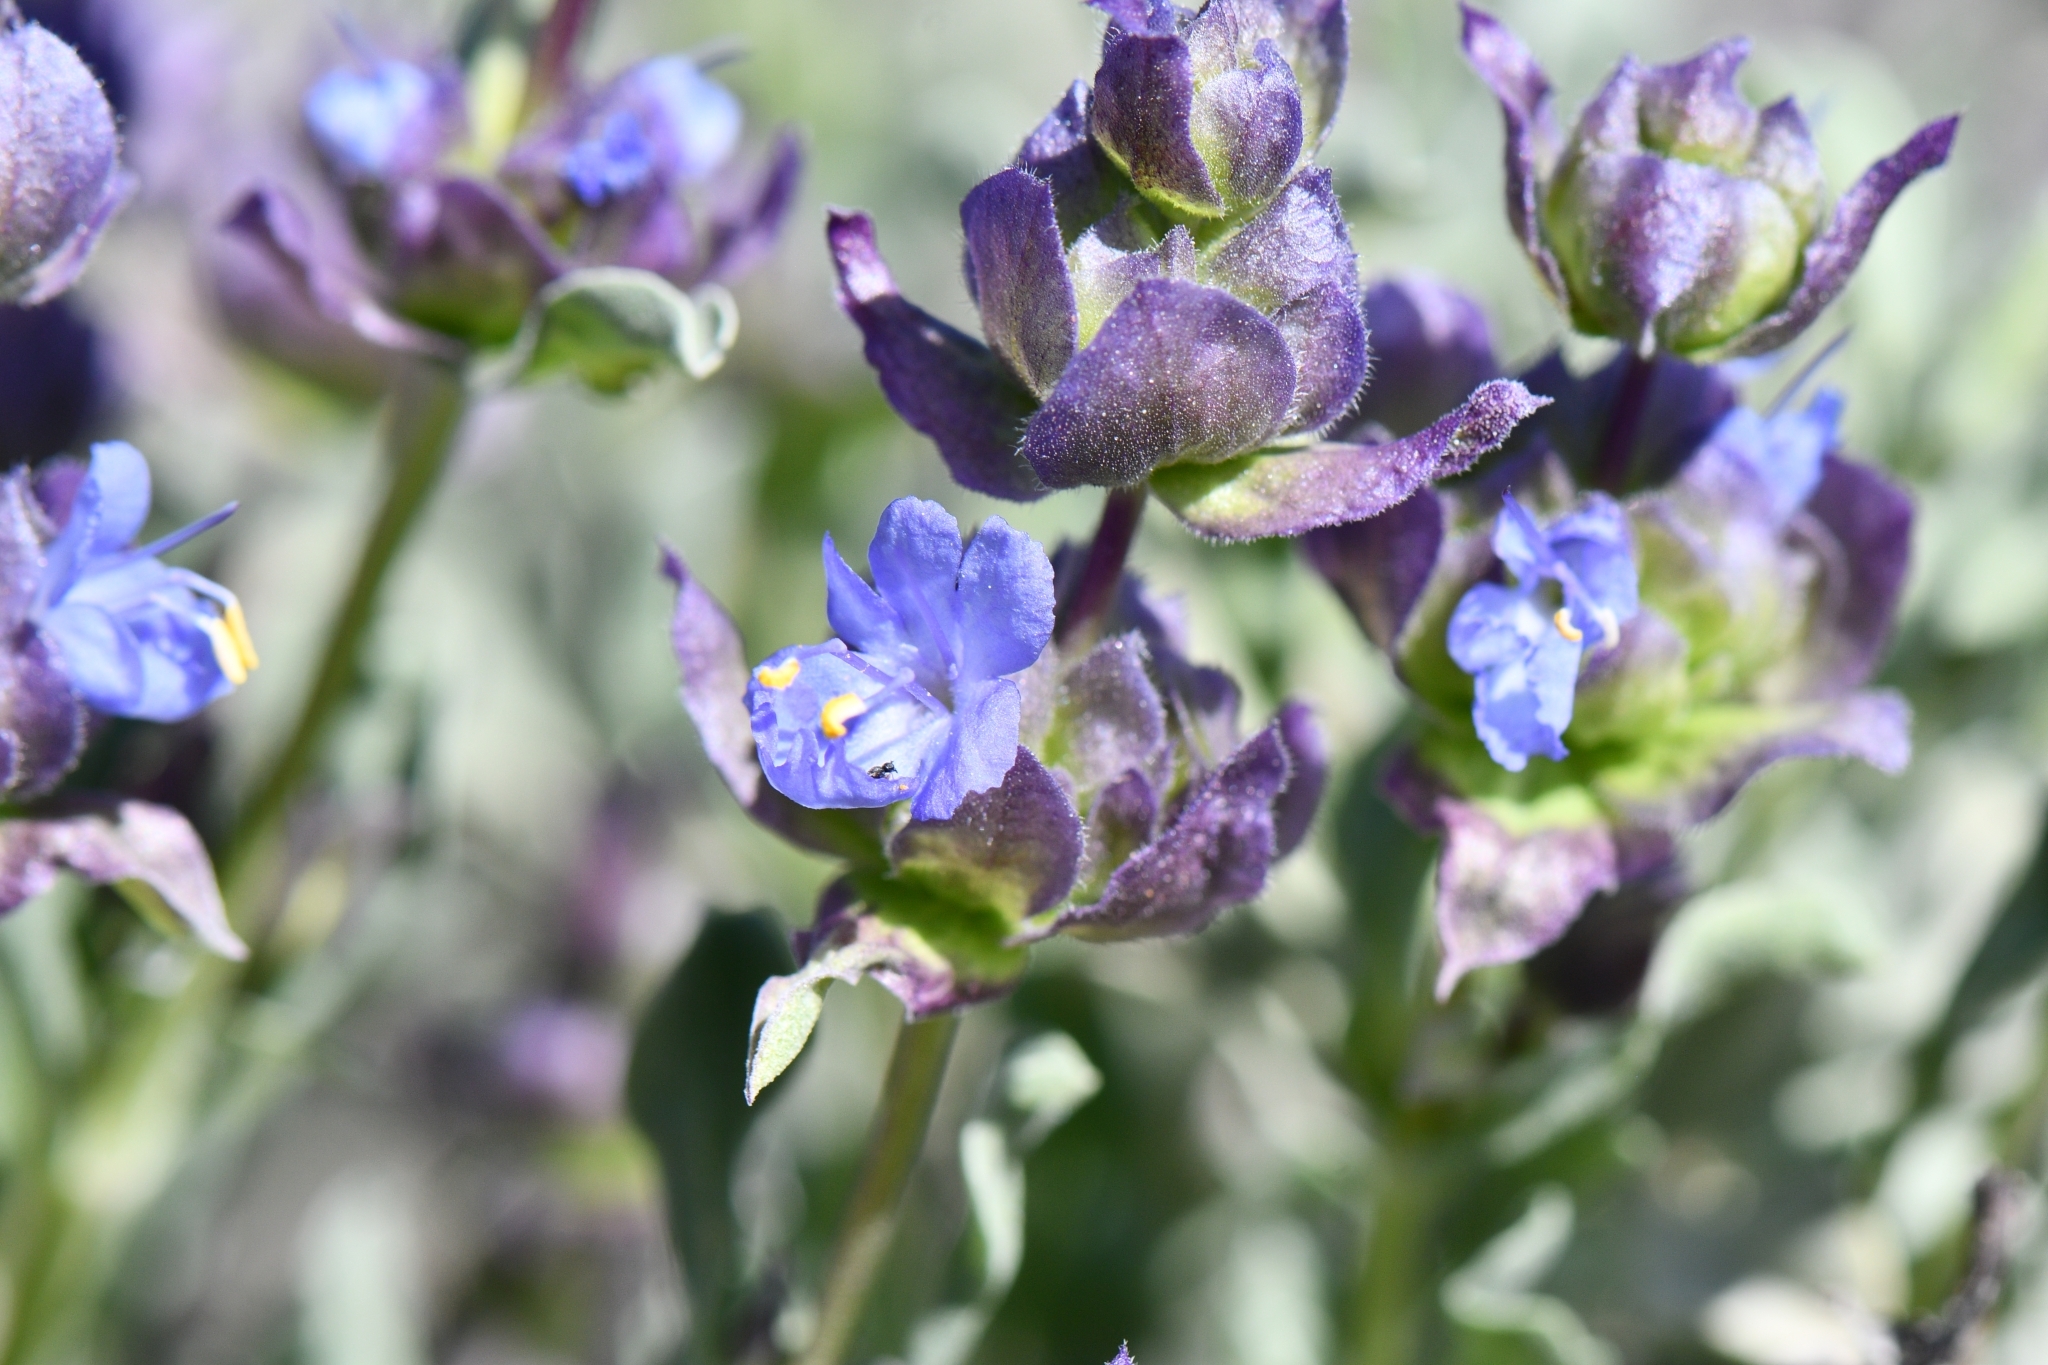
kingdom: Plantae
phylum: Tracheophyta
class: Magnoliopsida
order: Lamiales
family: Lamiaceae
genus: Salvia
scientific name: Salvia dorrii
